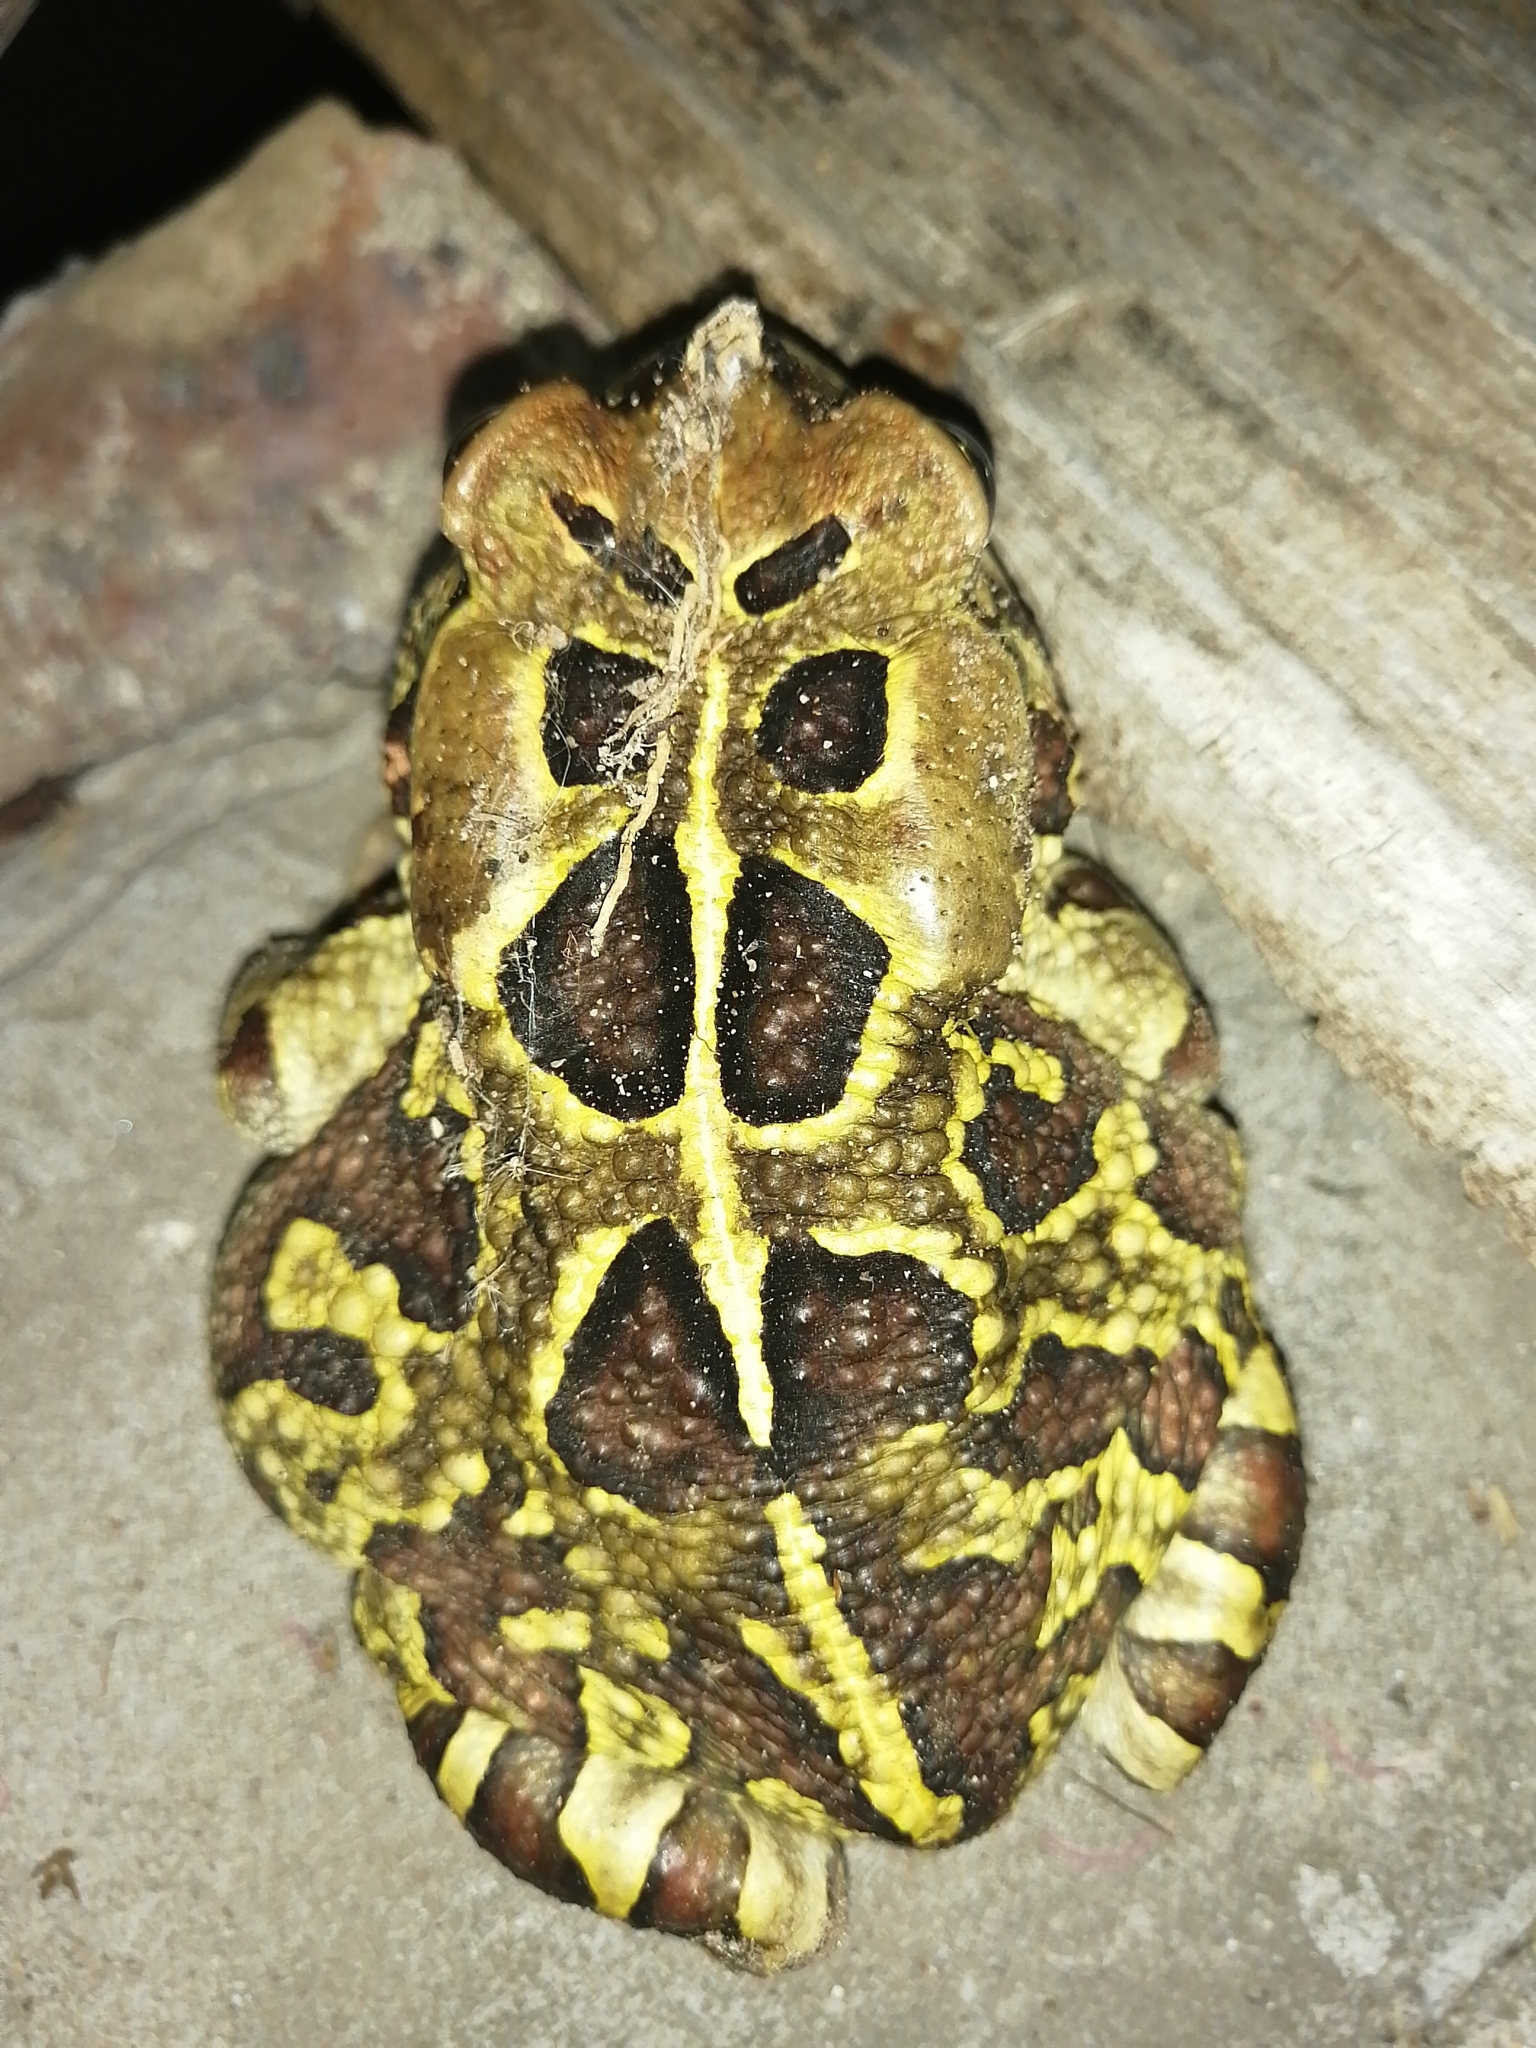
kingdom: Animalia
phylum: Chordata
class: Amphibia
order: Anura
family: Bufonidae
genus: Sclerophrys
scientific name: Sclerophrys pantherina
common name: Panther toad
